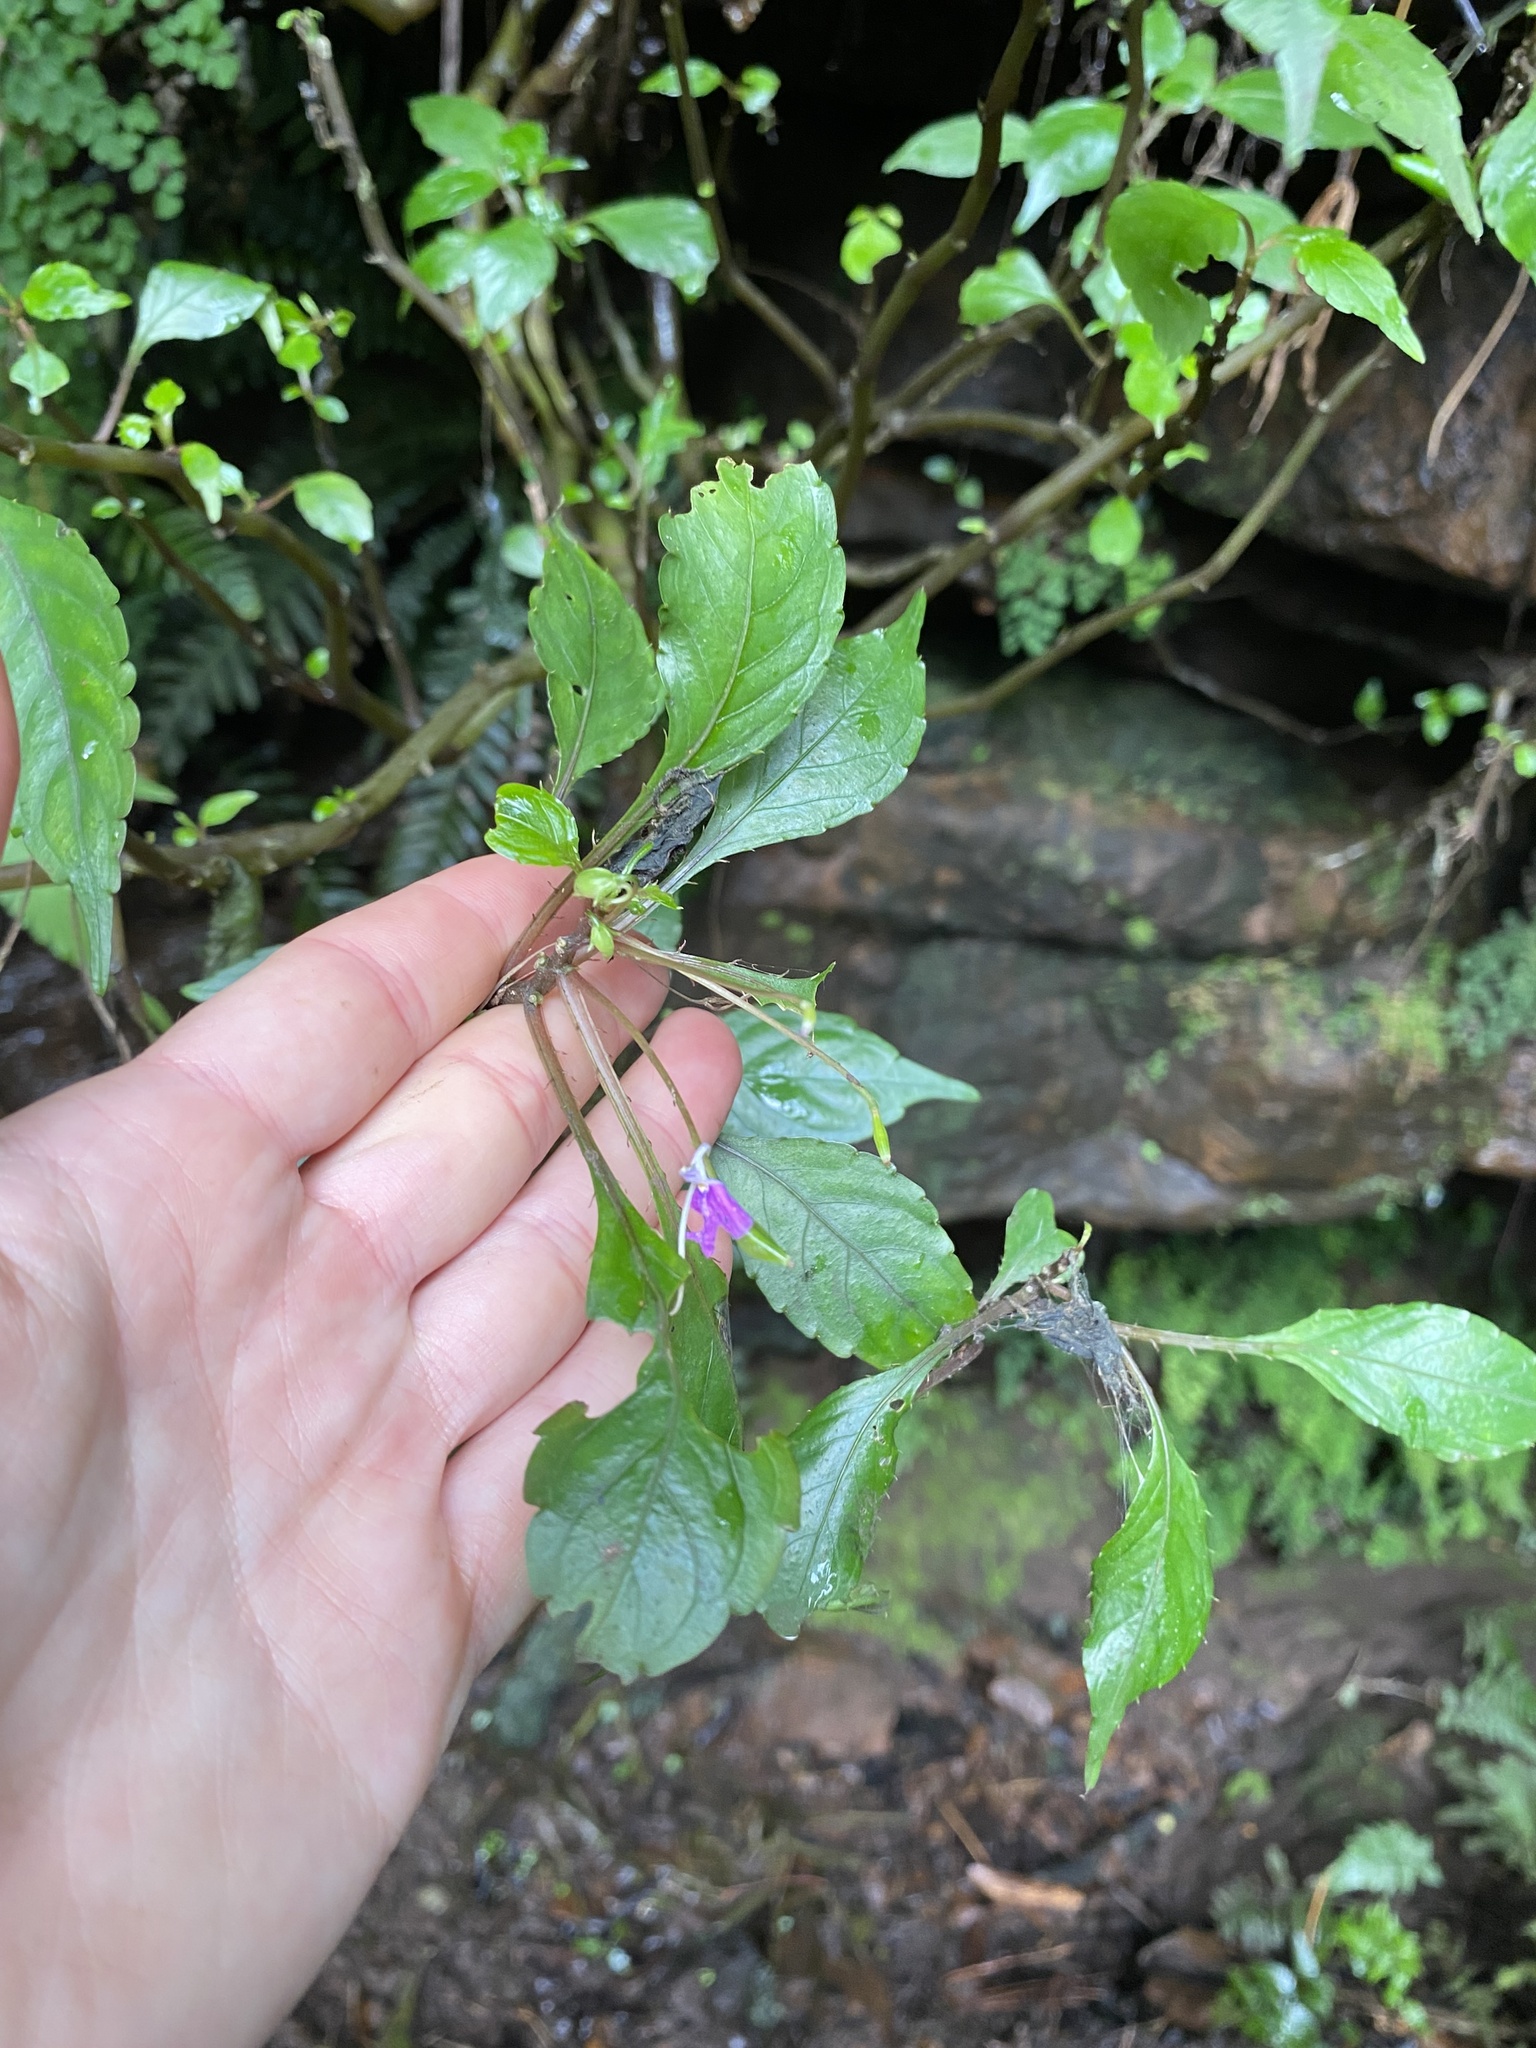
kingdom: Plantae
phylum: Tracheophyta
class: Magnoliopsida
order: Ericales
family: Balsaminaceae
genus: Impatiens
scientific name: Impatiens hochstetteri
